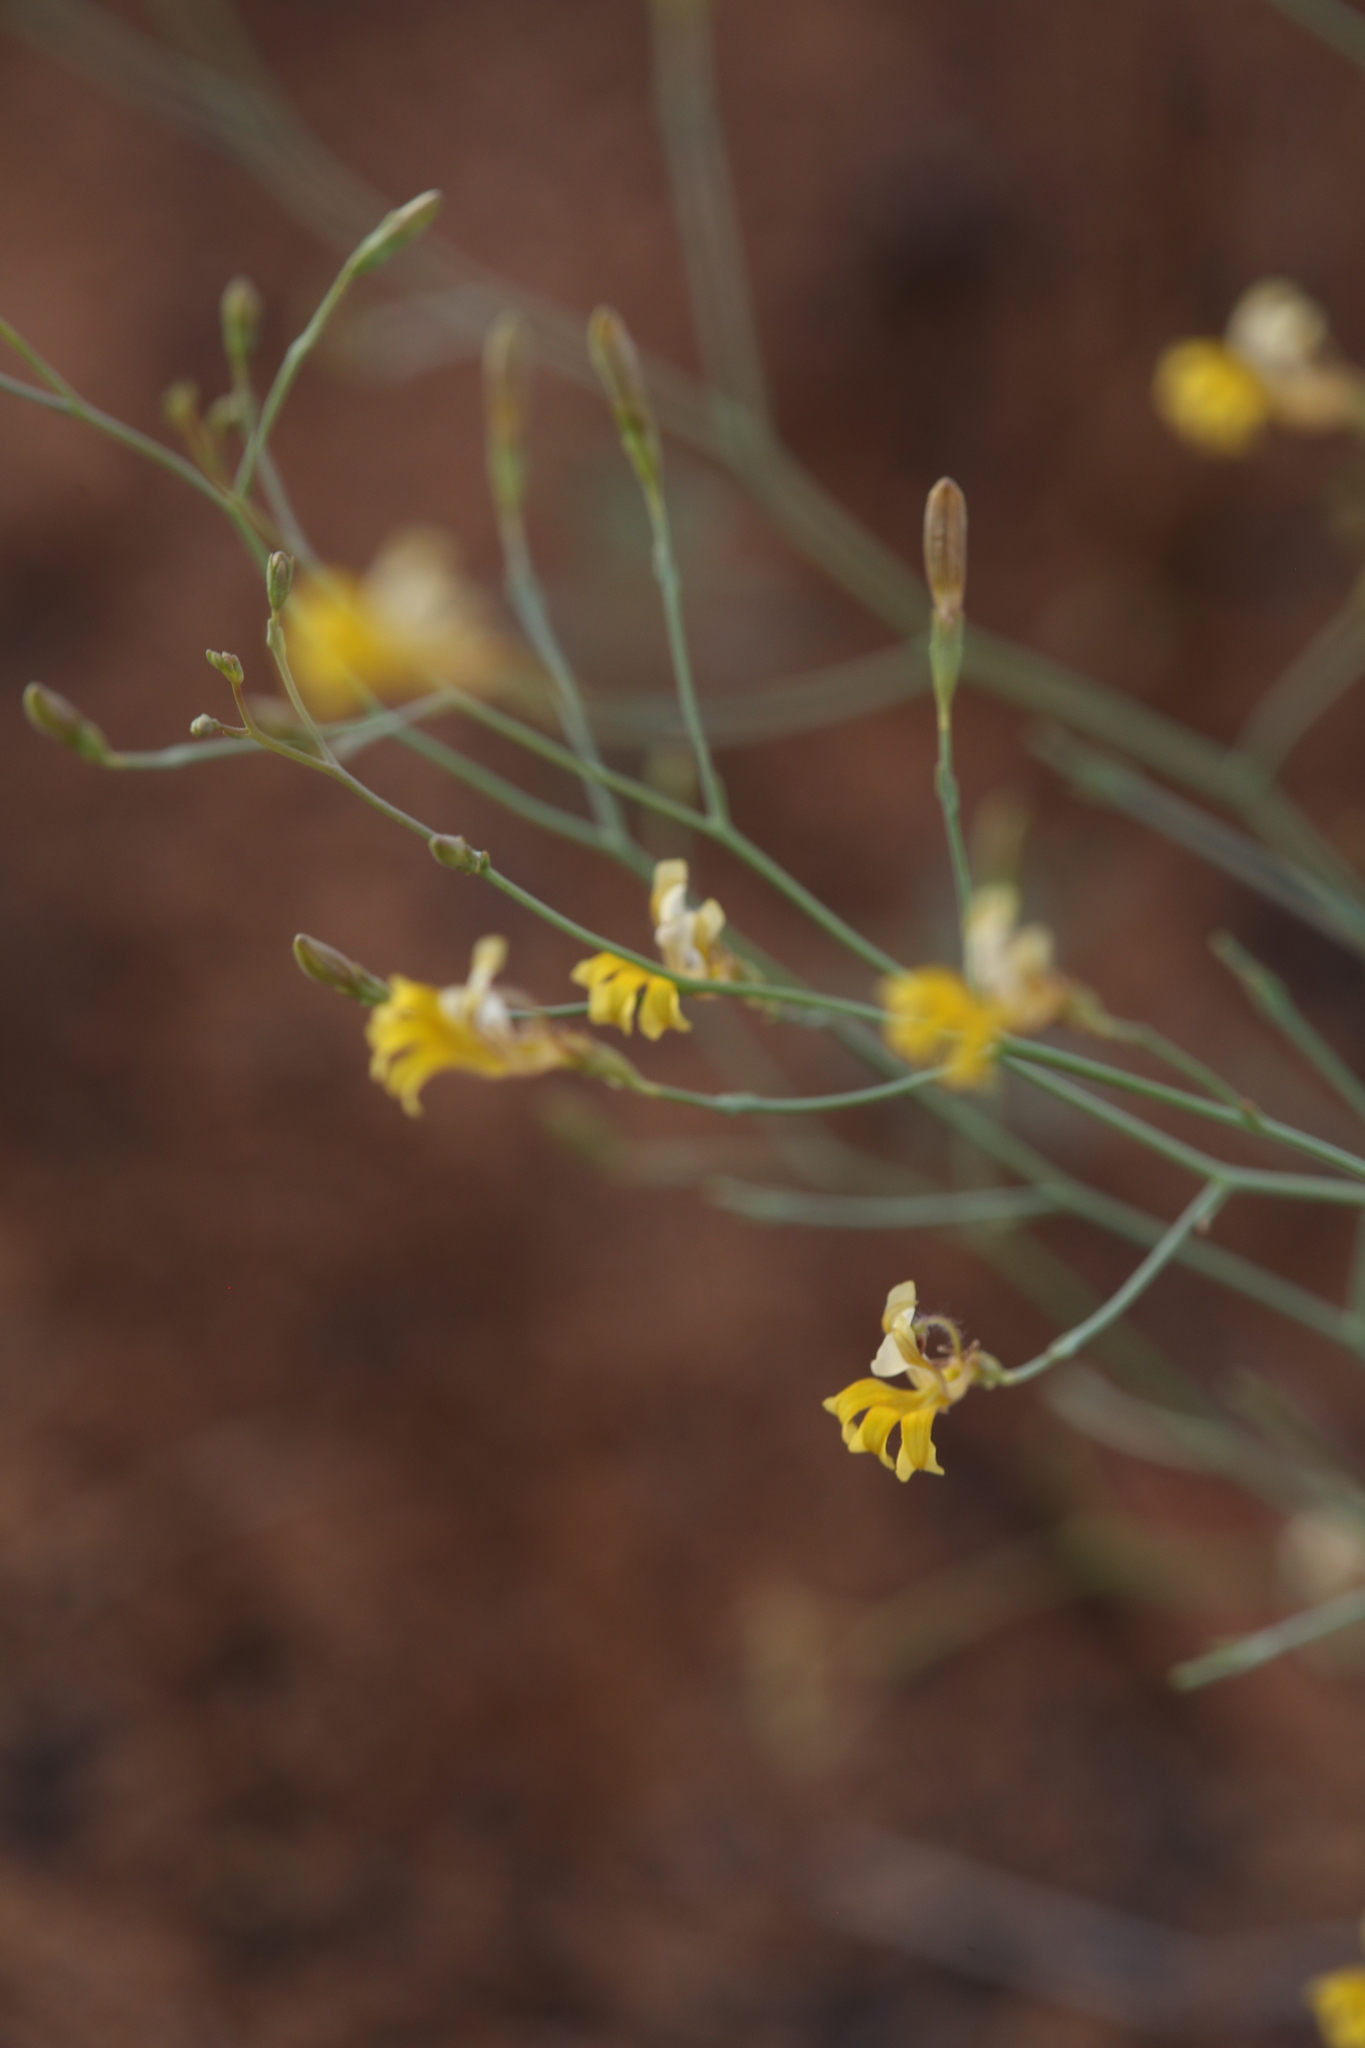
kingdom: Plantae
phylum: Tracheophyta
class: Magnoliopsida
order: Asterales
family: Goodeniaceae
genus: Goodenia
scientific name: Goodenia lamprosperma
